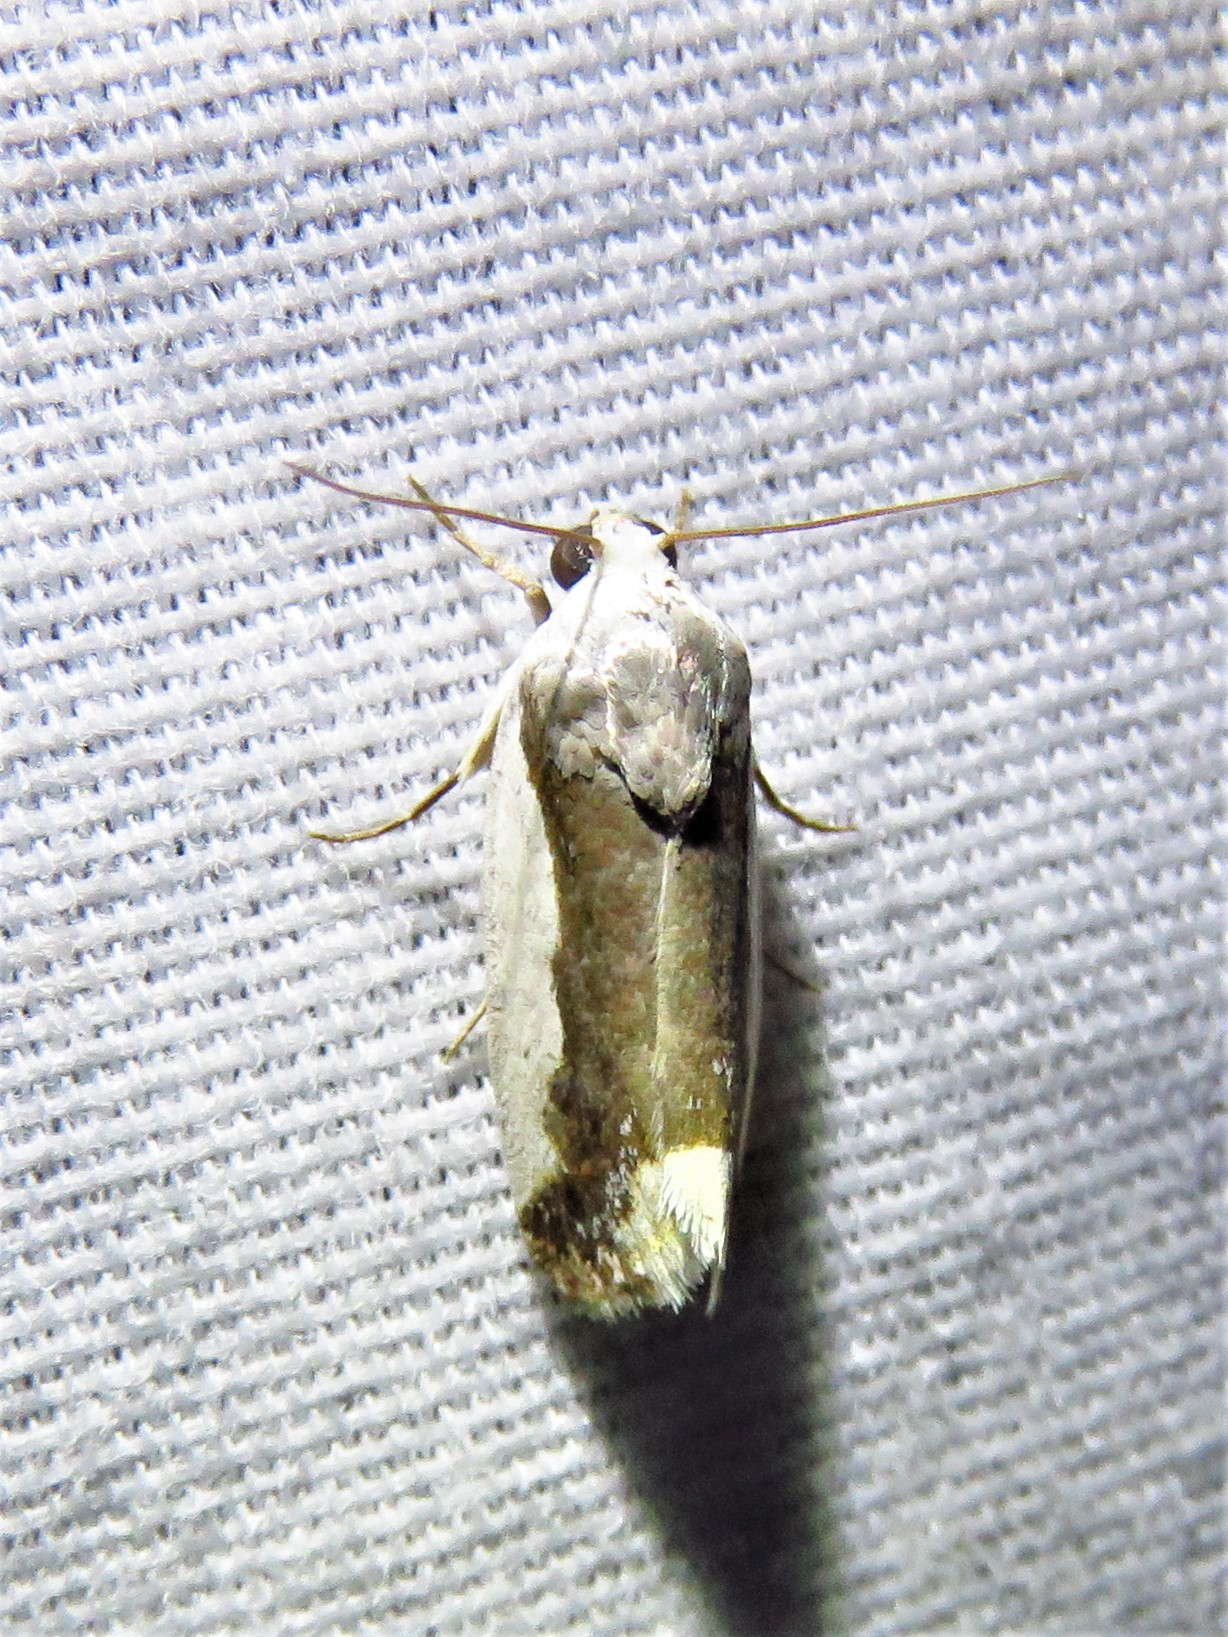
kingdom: Animalia
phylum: Arthropoda
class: Insecta
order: Lepidoptera
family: Noctuidae
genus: Acontia
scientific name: Acontia Tarache expolita
